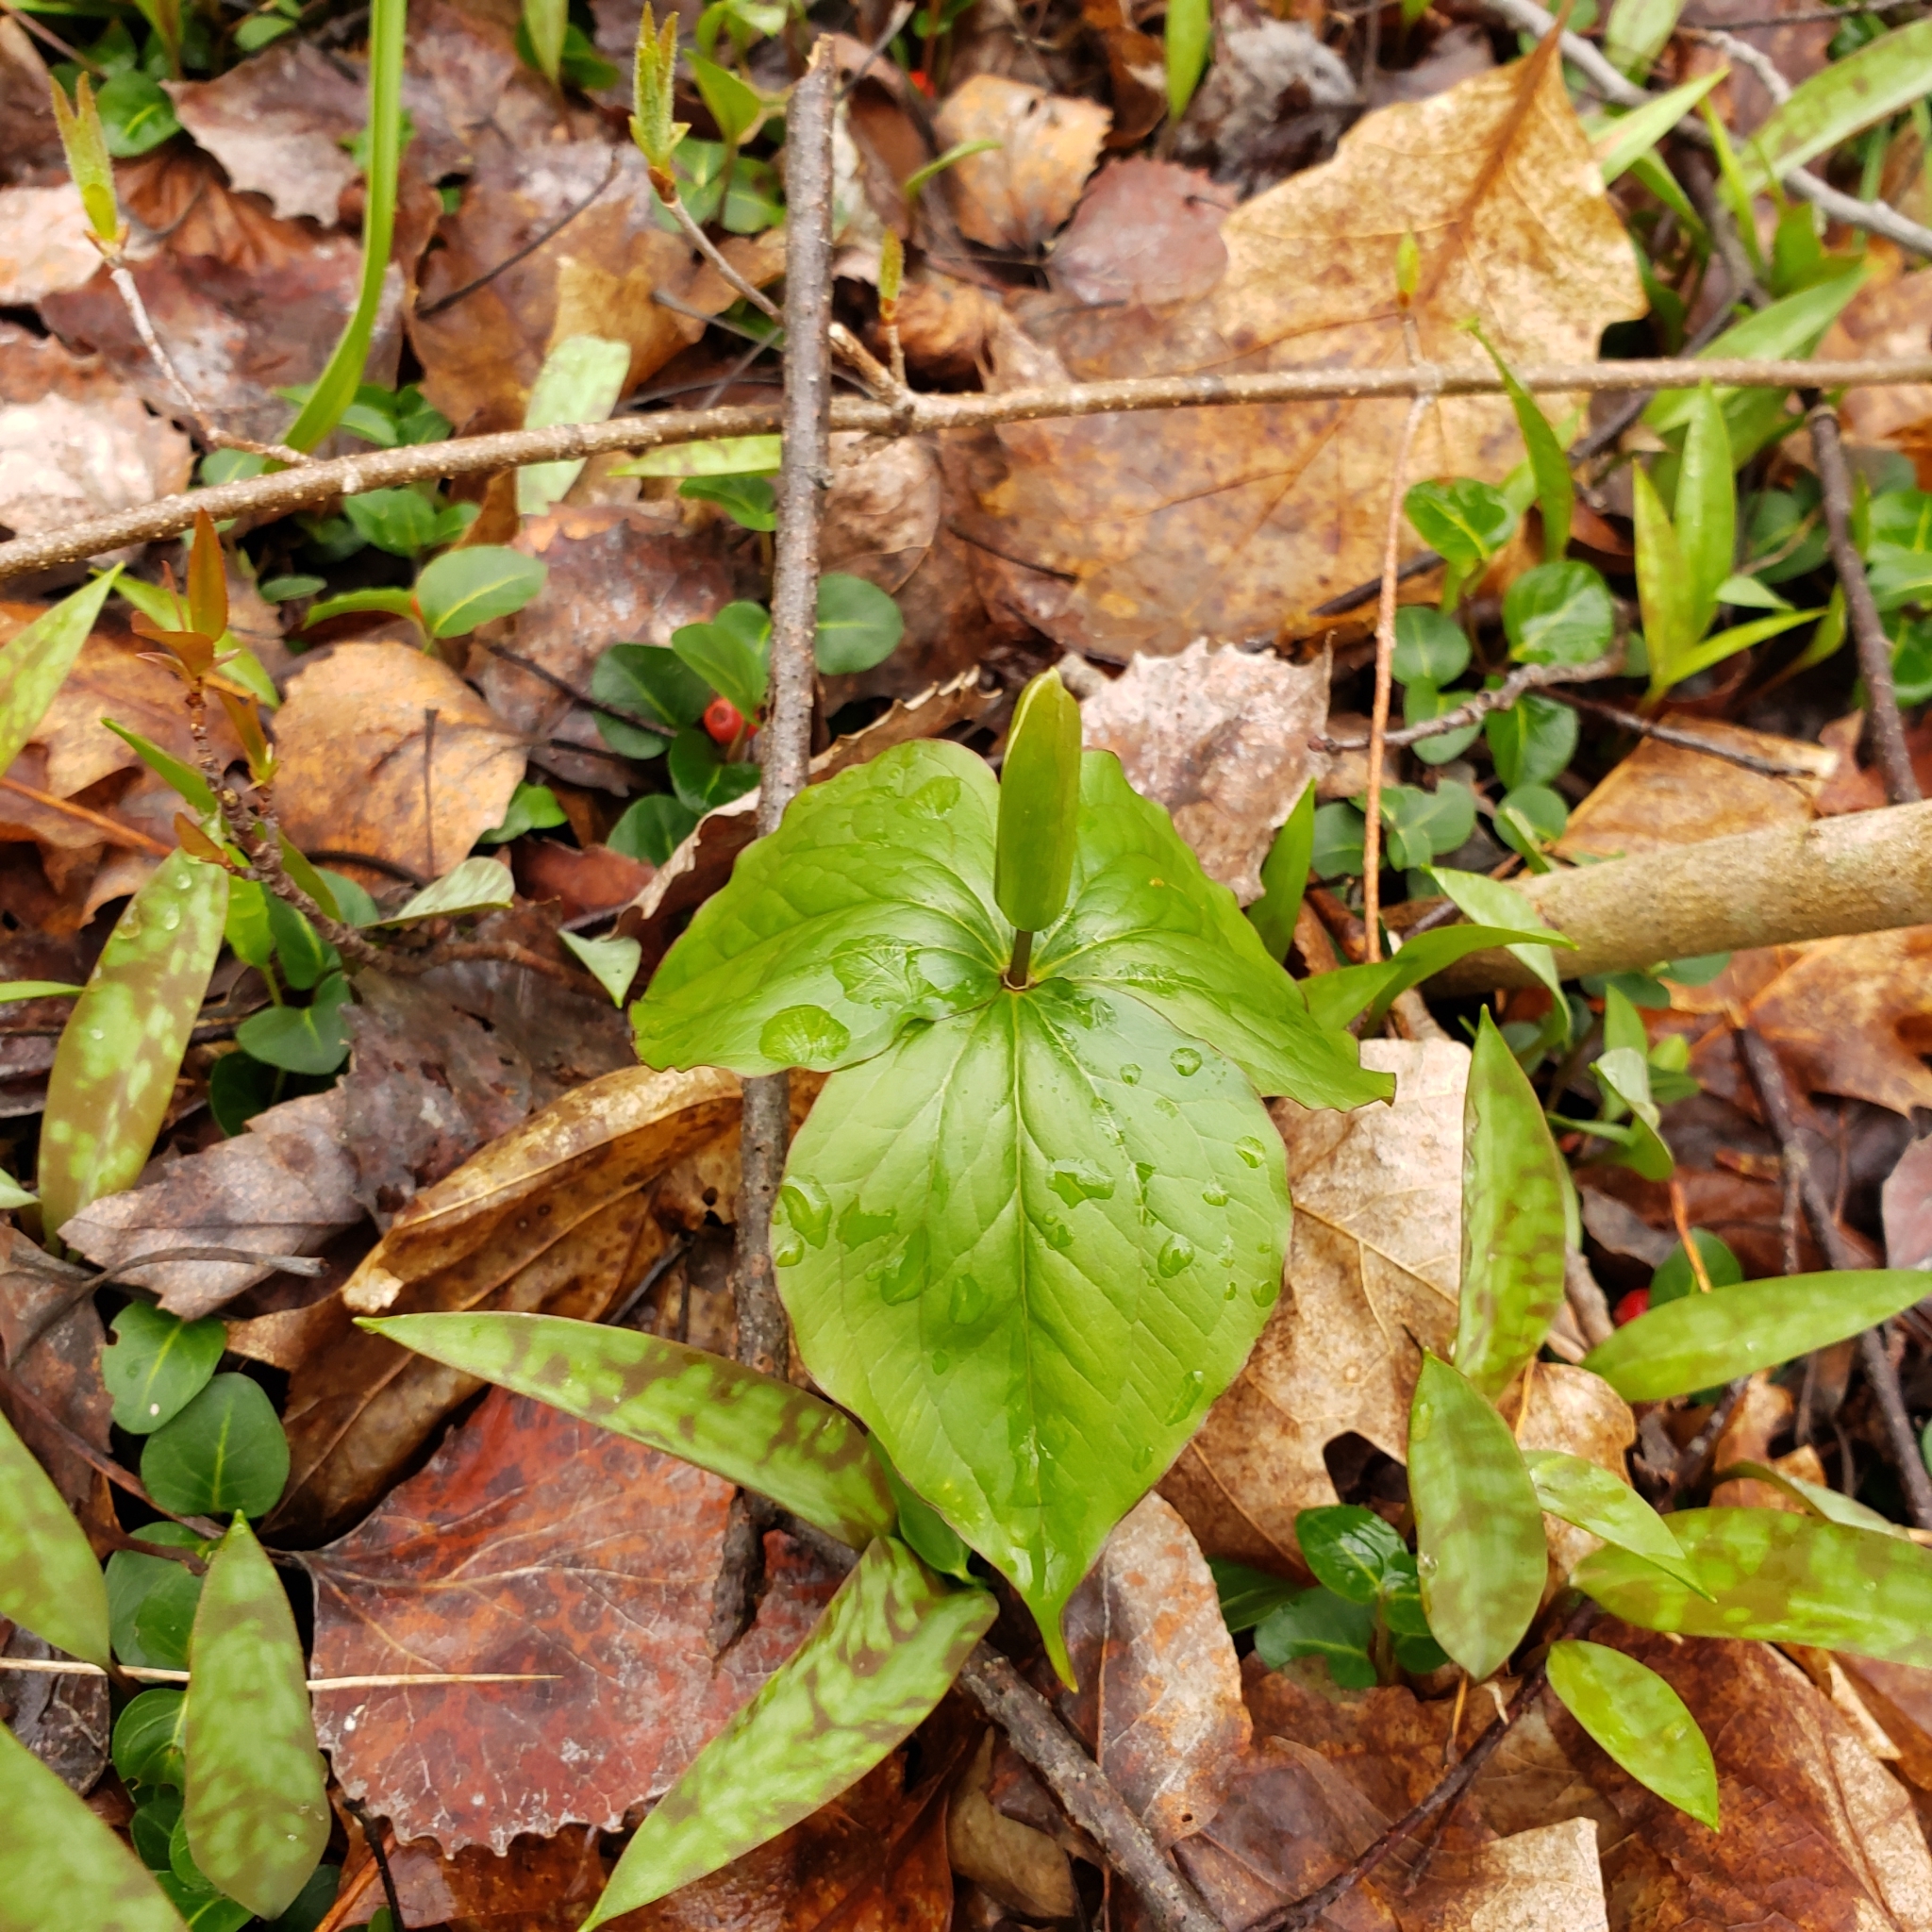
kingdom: Plantae
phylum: Tracheophyta
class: Liliopsida
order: Liliales
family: Melanthiaceae
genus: Trillium
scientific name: Trillium grandiflorum
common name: Great white trillium
